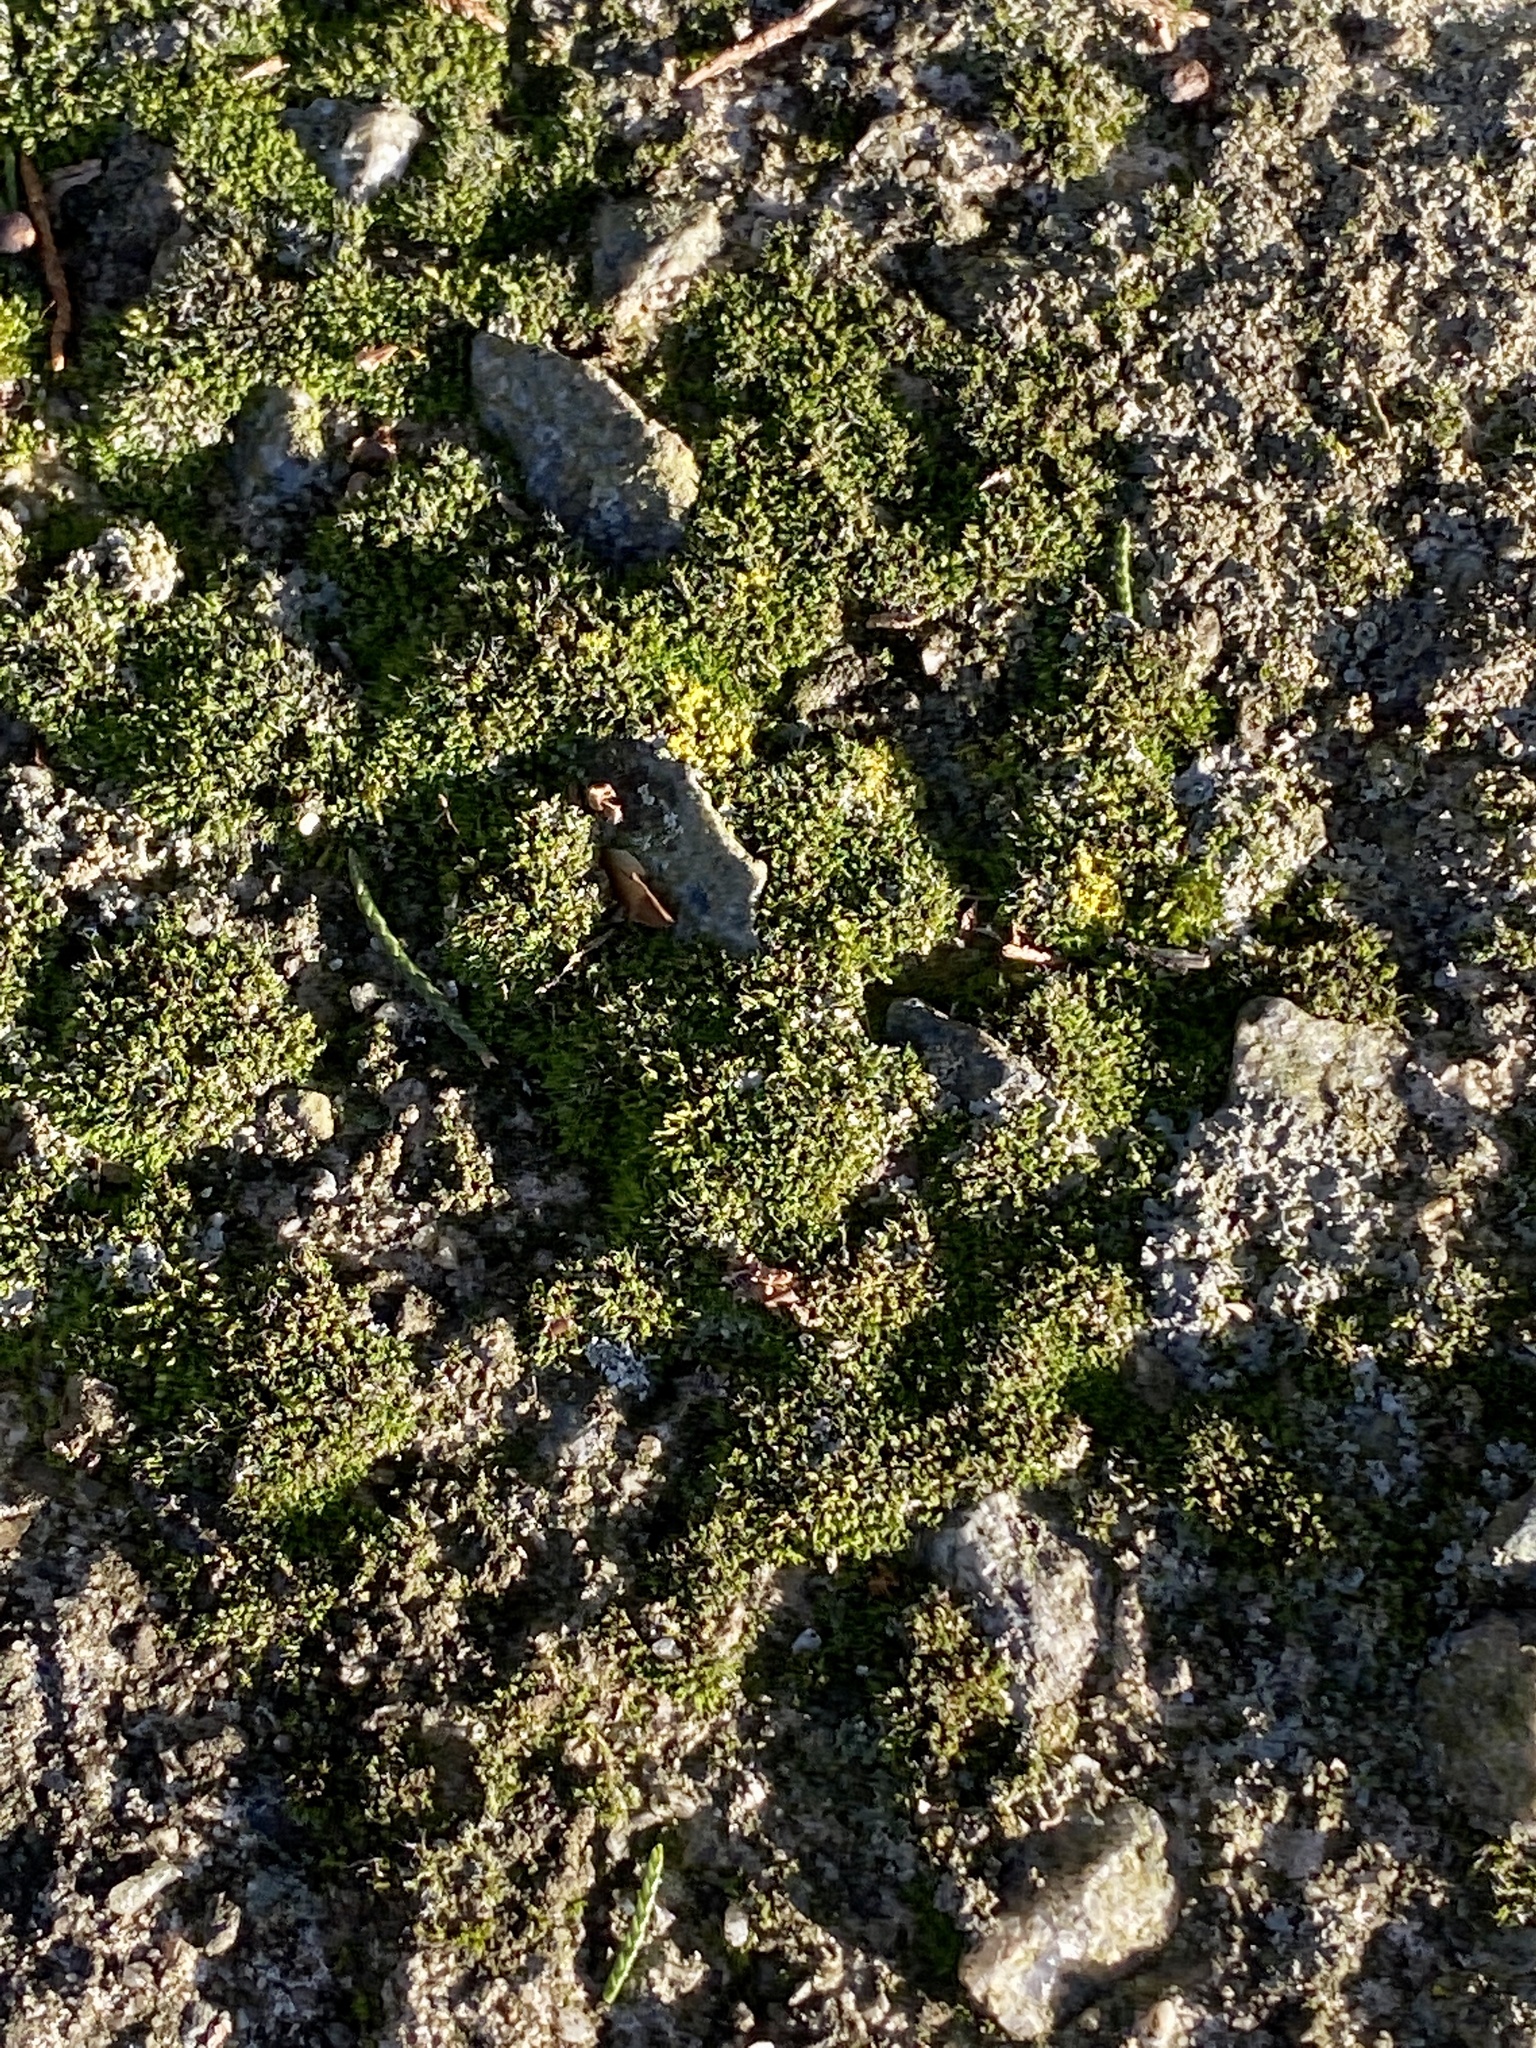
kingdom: Plantae
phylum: Bryophyta
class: Bryopsida
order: Bryales
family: Bryaceae
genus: Bryum
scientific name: Bryum argenteum
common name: Silver-moss
